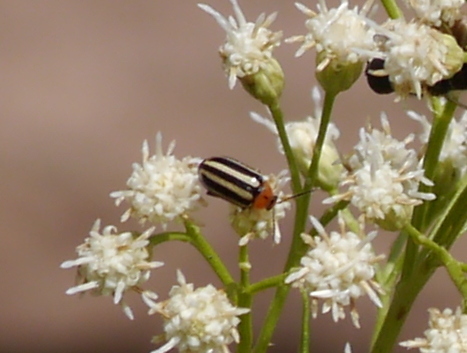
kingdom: Animalia
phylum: Arthropoda
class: Insecta
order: Coleoptera
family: Chrysomelidae
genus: Disonycha
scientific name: Disonycha glabrata
